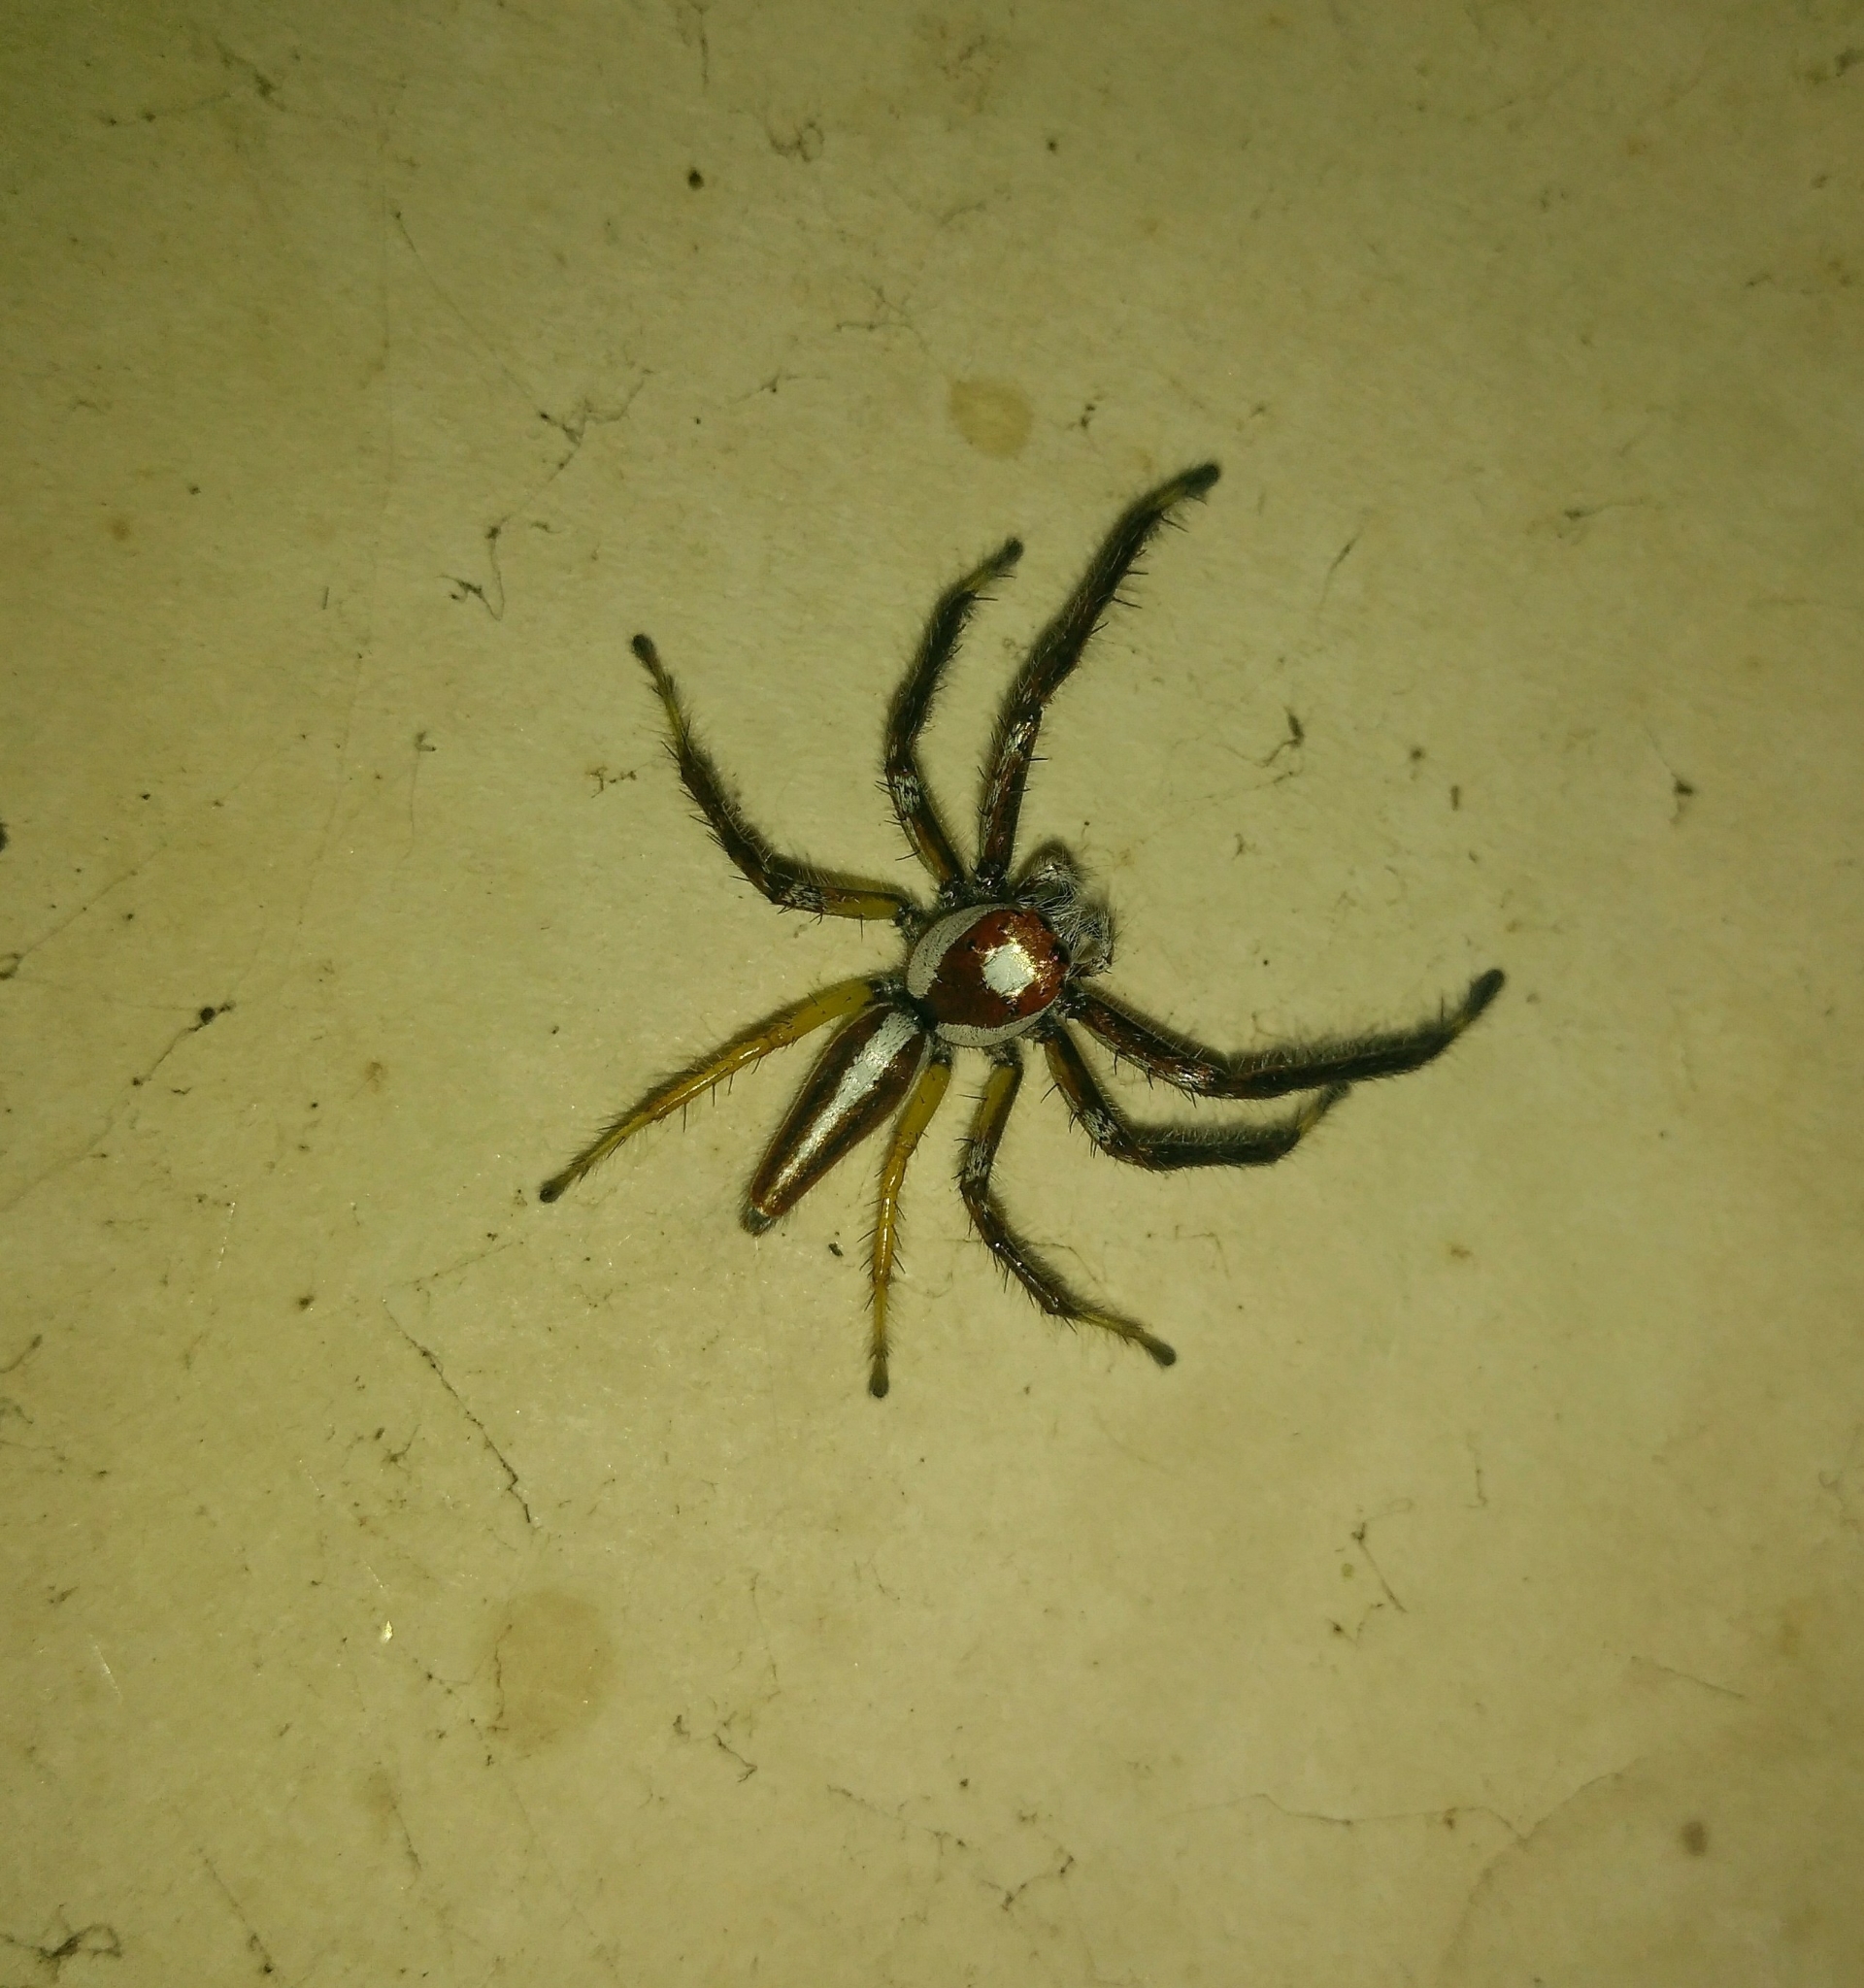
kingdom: Animalia
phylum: Arthropoda
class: Arachnida
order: Araneae
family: Salticidae
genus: Telamonia
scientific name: Telamonia dimidiata
